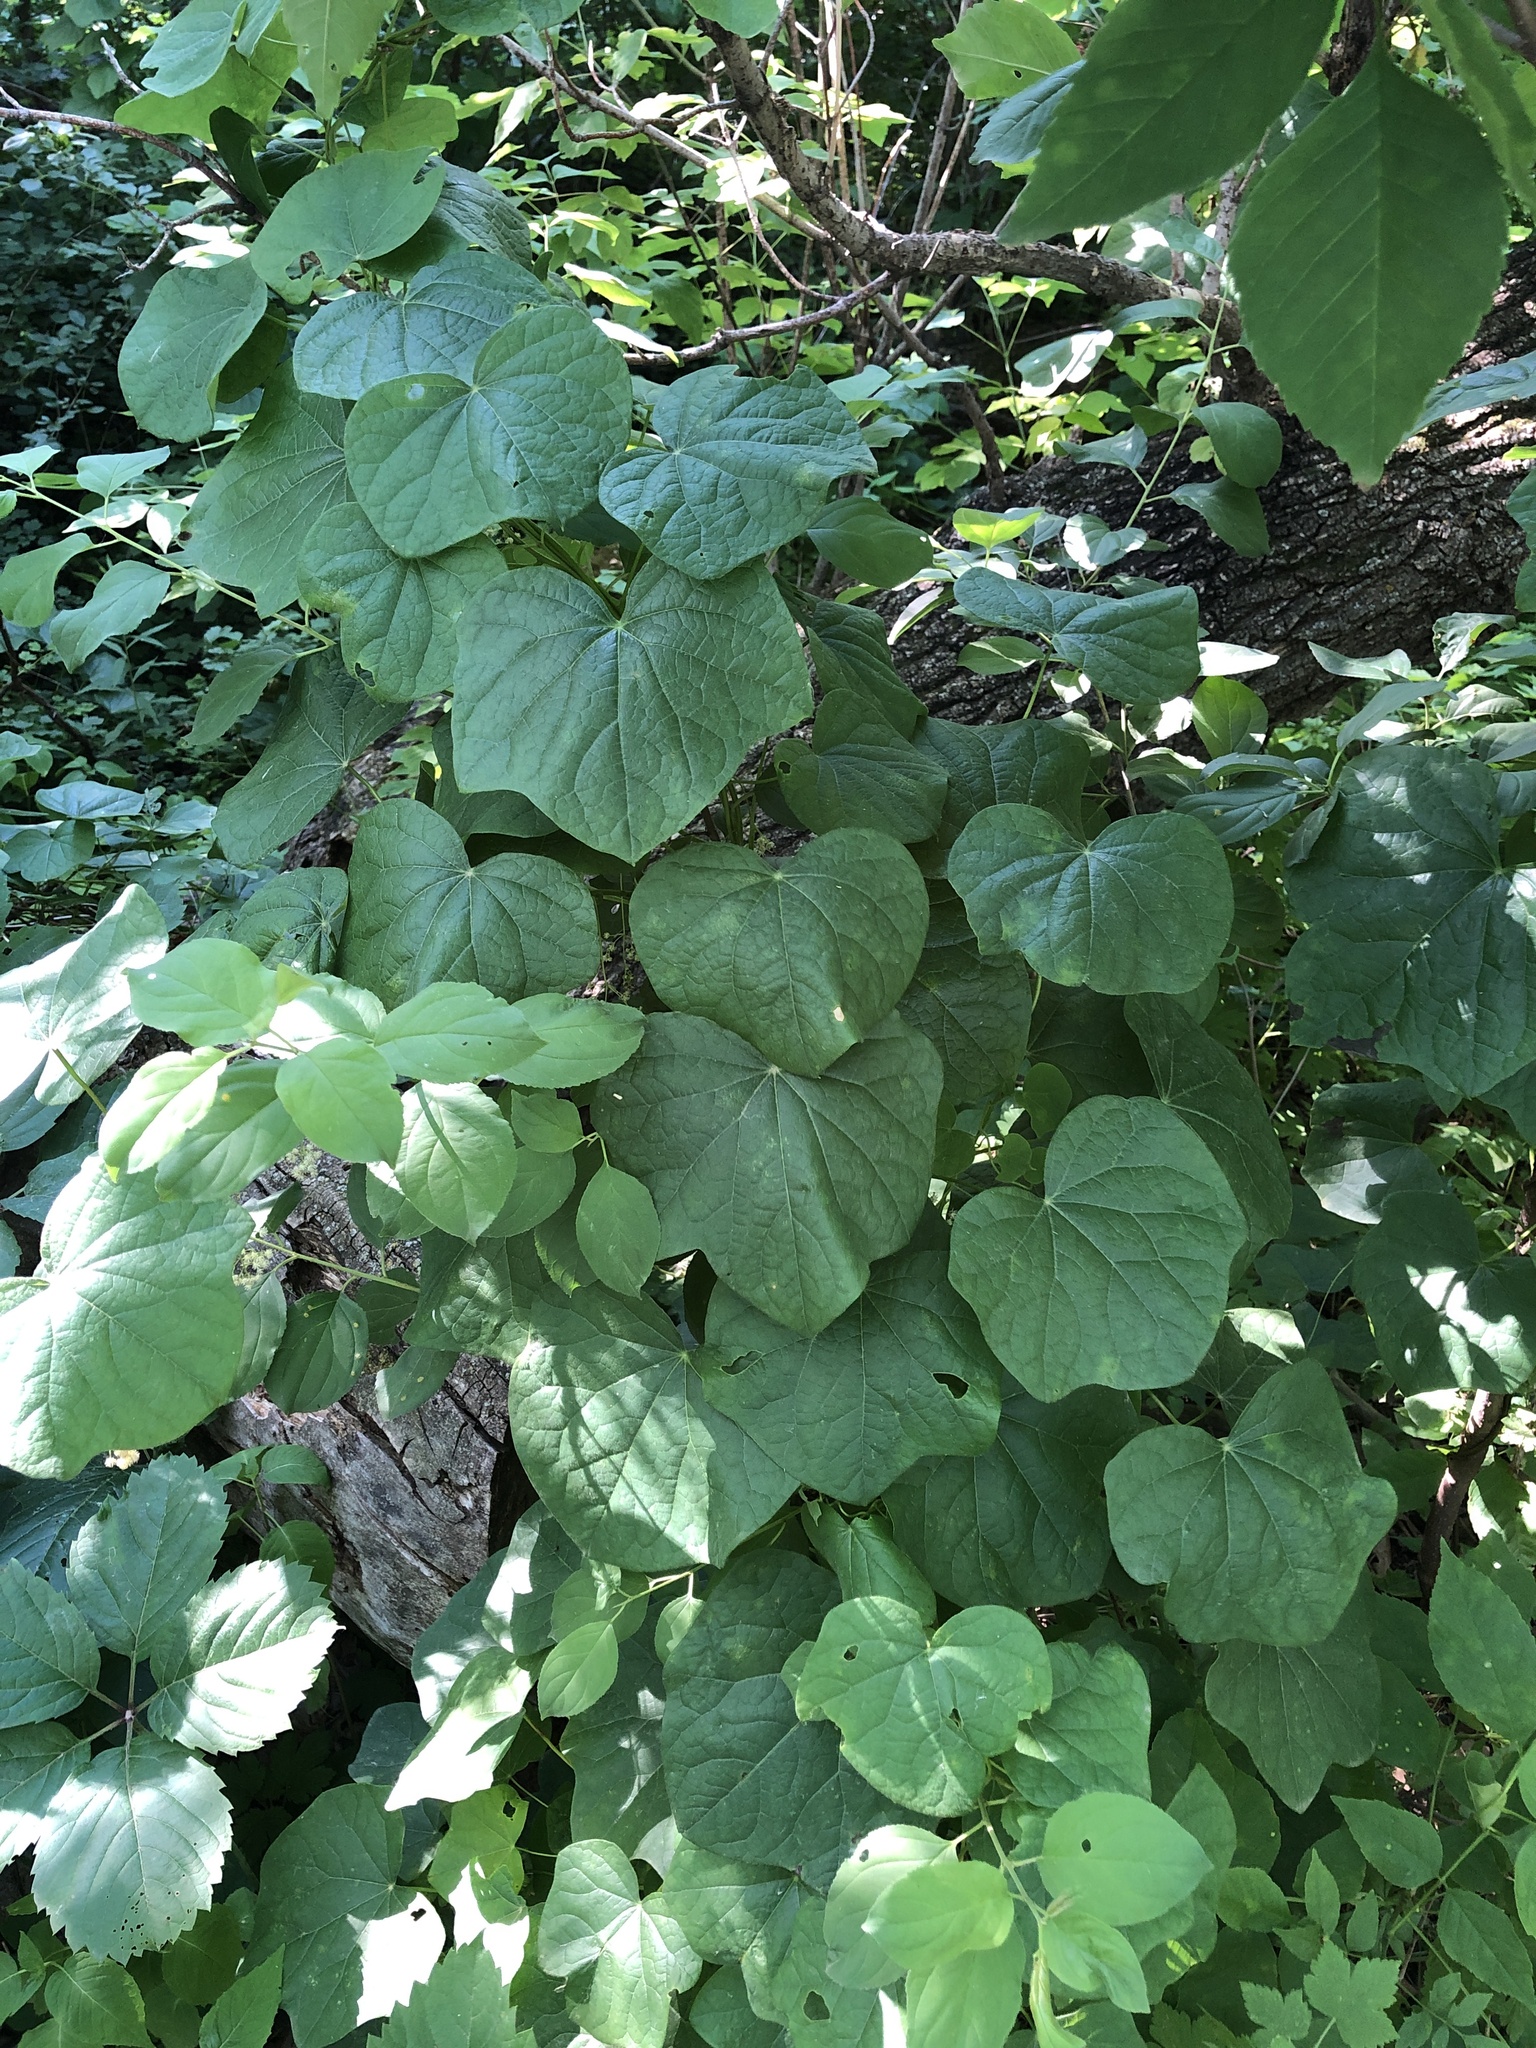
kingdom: Plantae
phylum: Tracheophyta
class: Magnoliopsida
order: Ranunculales
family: Menispermaceae
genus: Menispermum
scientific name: Menispermum canadense
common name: Moonseed
